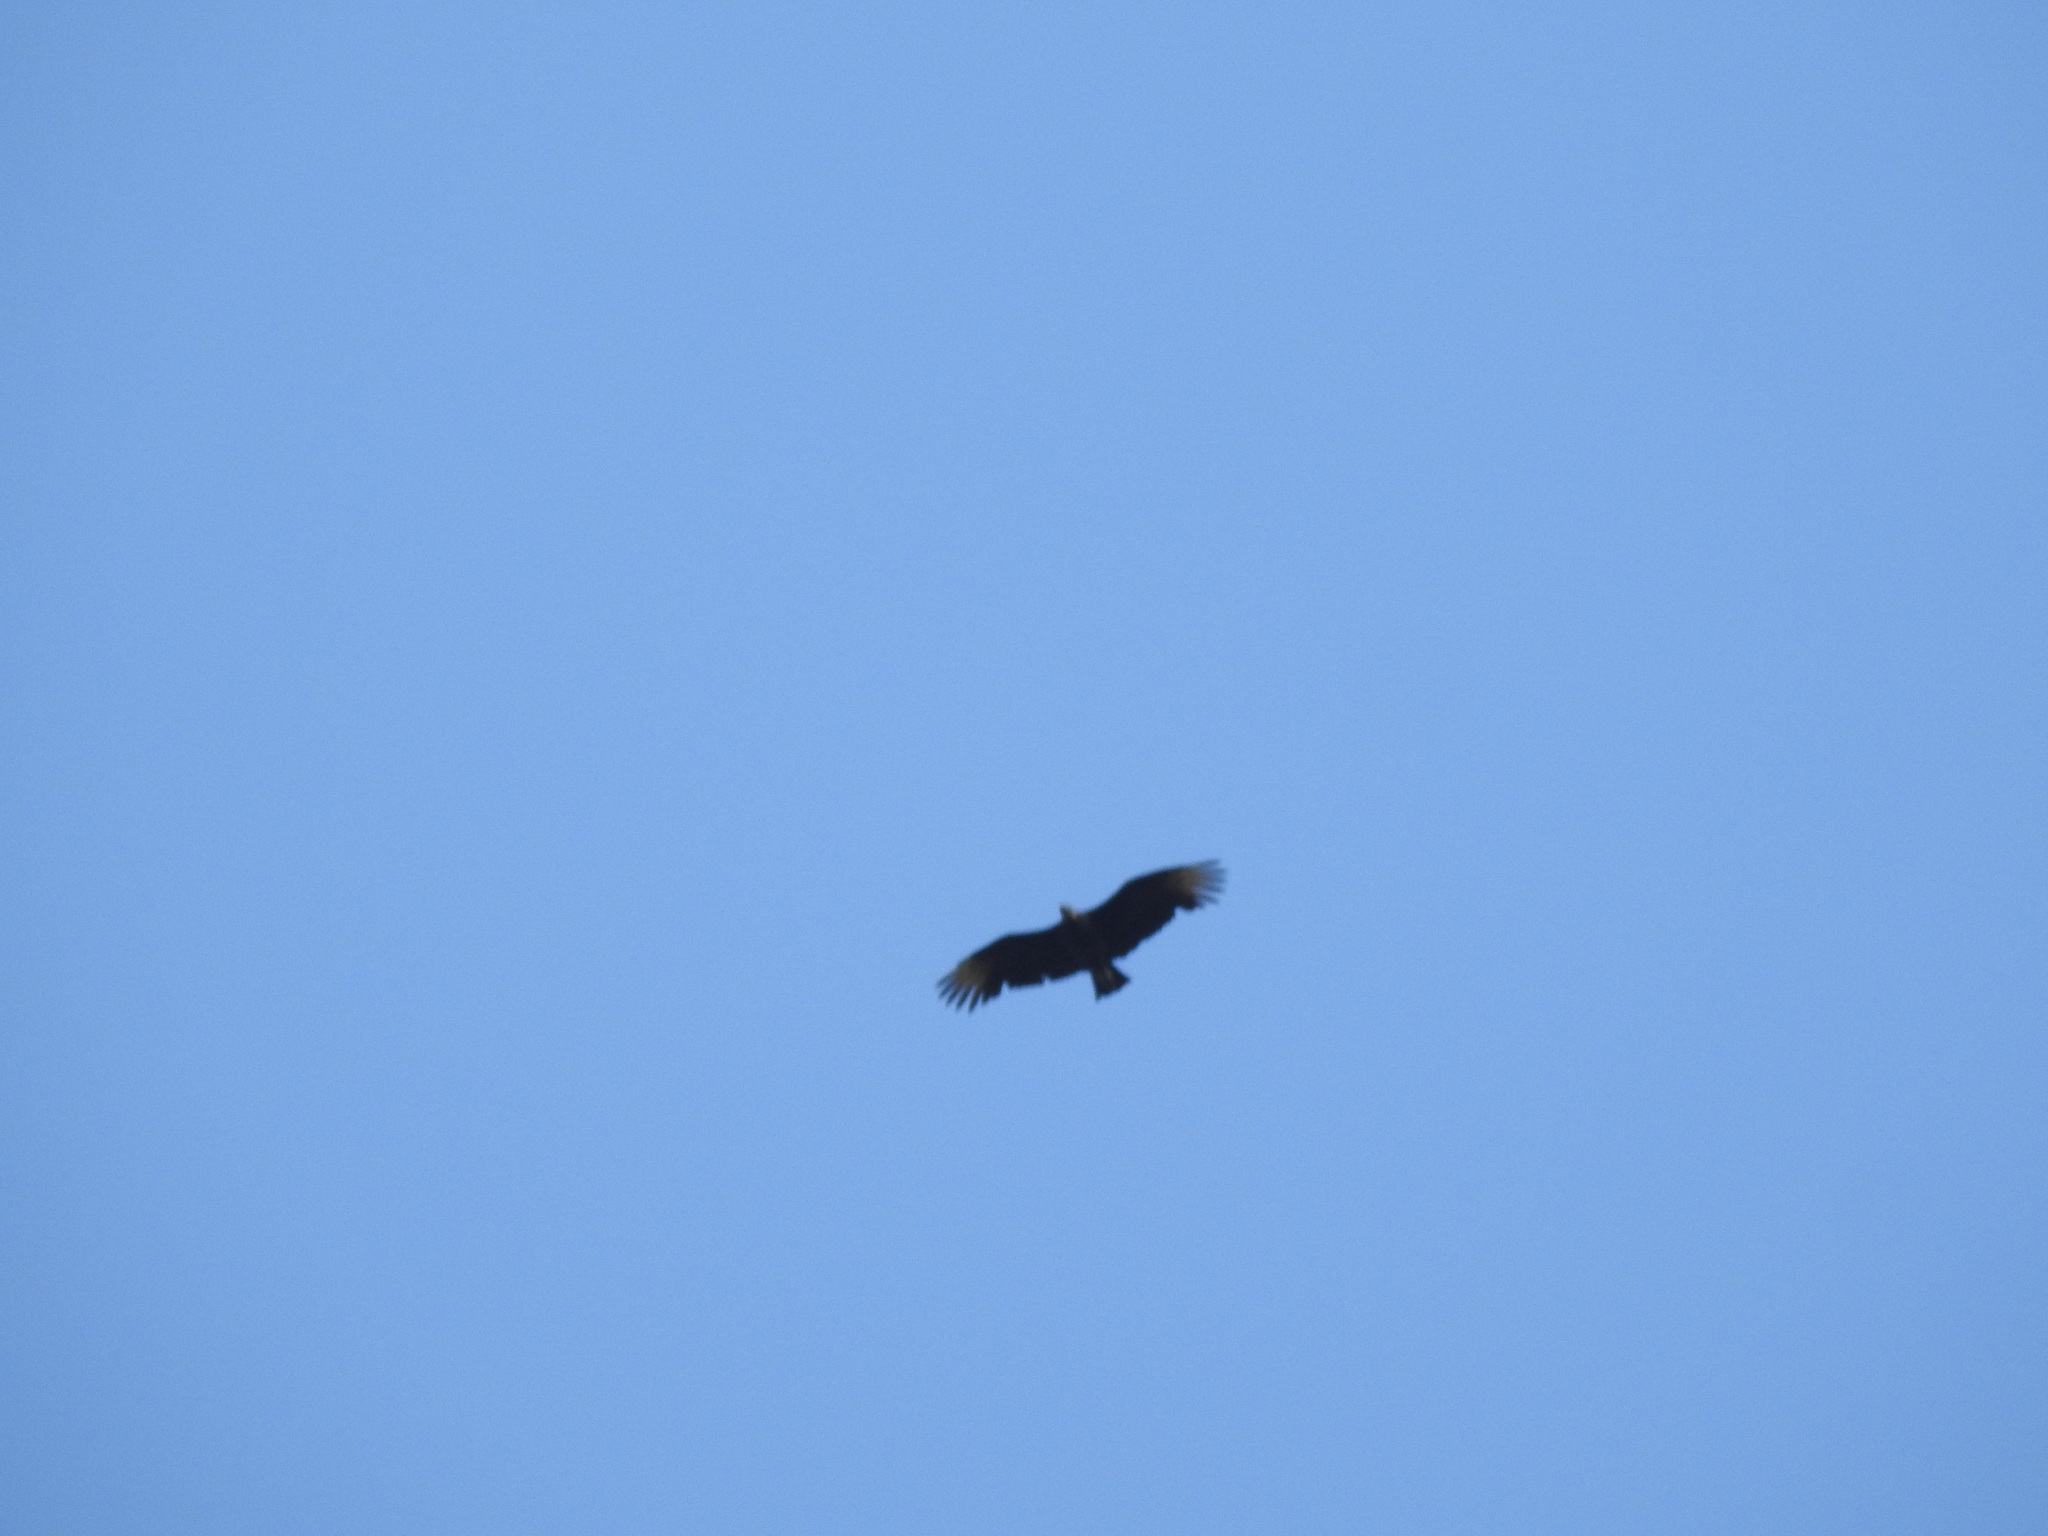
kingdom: Animalia
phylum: Chordata
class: Aves
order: Accipitriformes
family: Cathartidae
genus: Coragyps
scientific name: Coragyps atratus
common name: Black vulture
